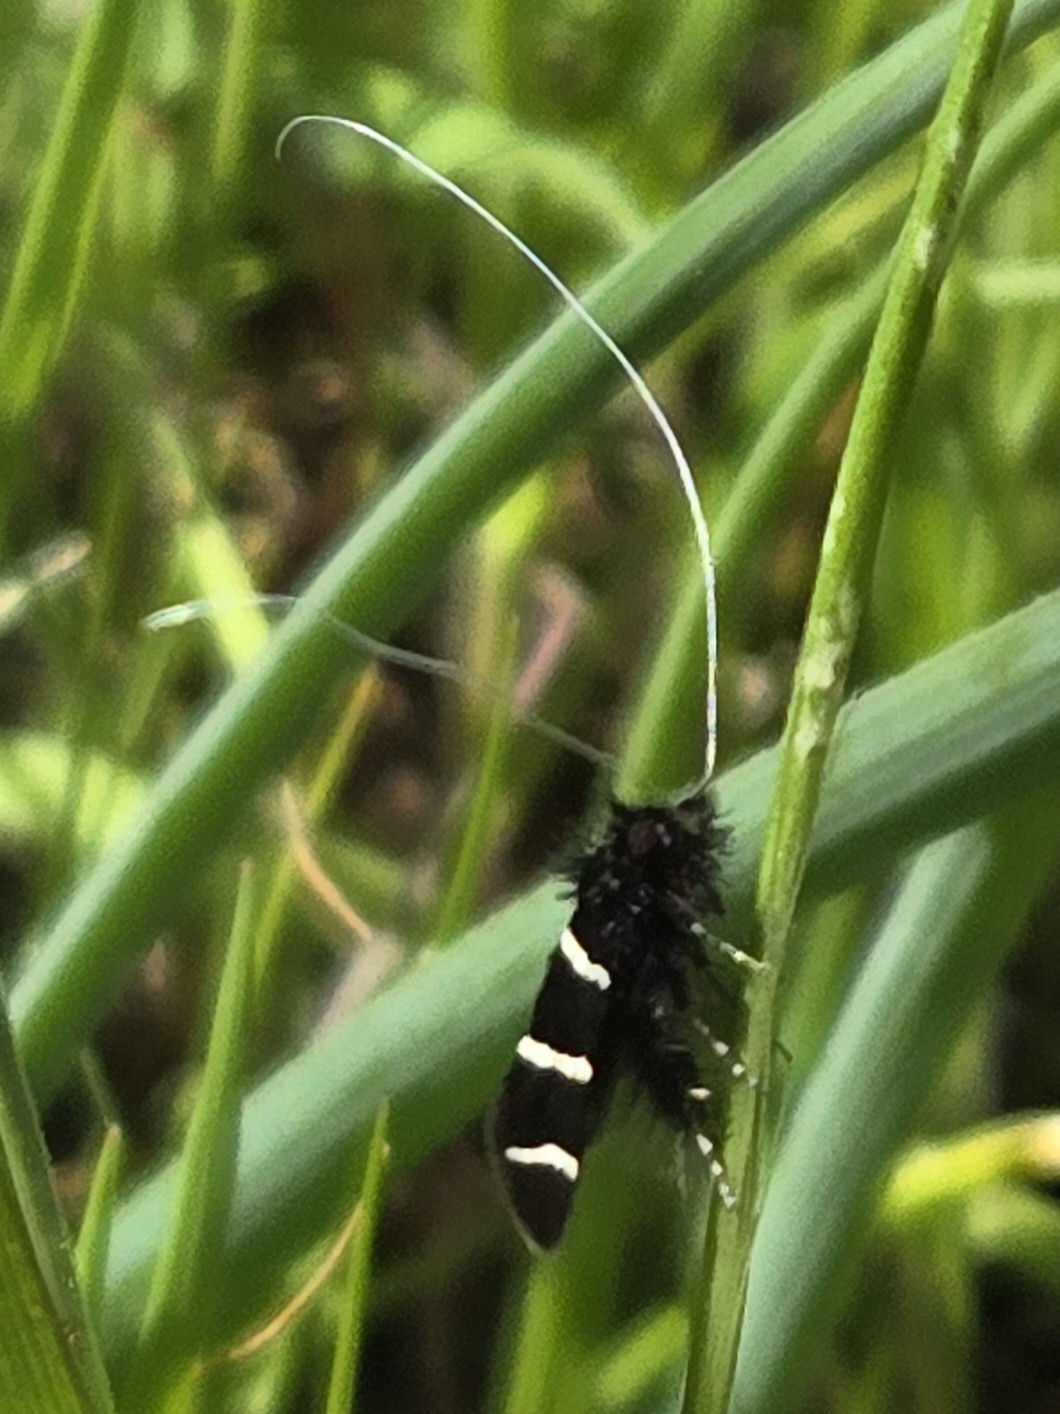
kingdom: Animalia
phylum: Arthropoda
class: Insecta
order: Lepidoptera
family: Adelidae
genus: Adela
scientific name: Adela trigrapha
